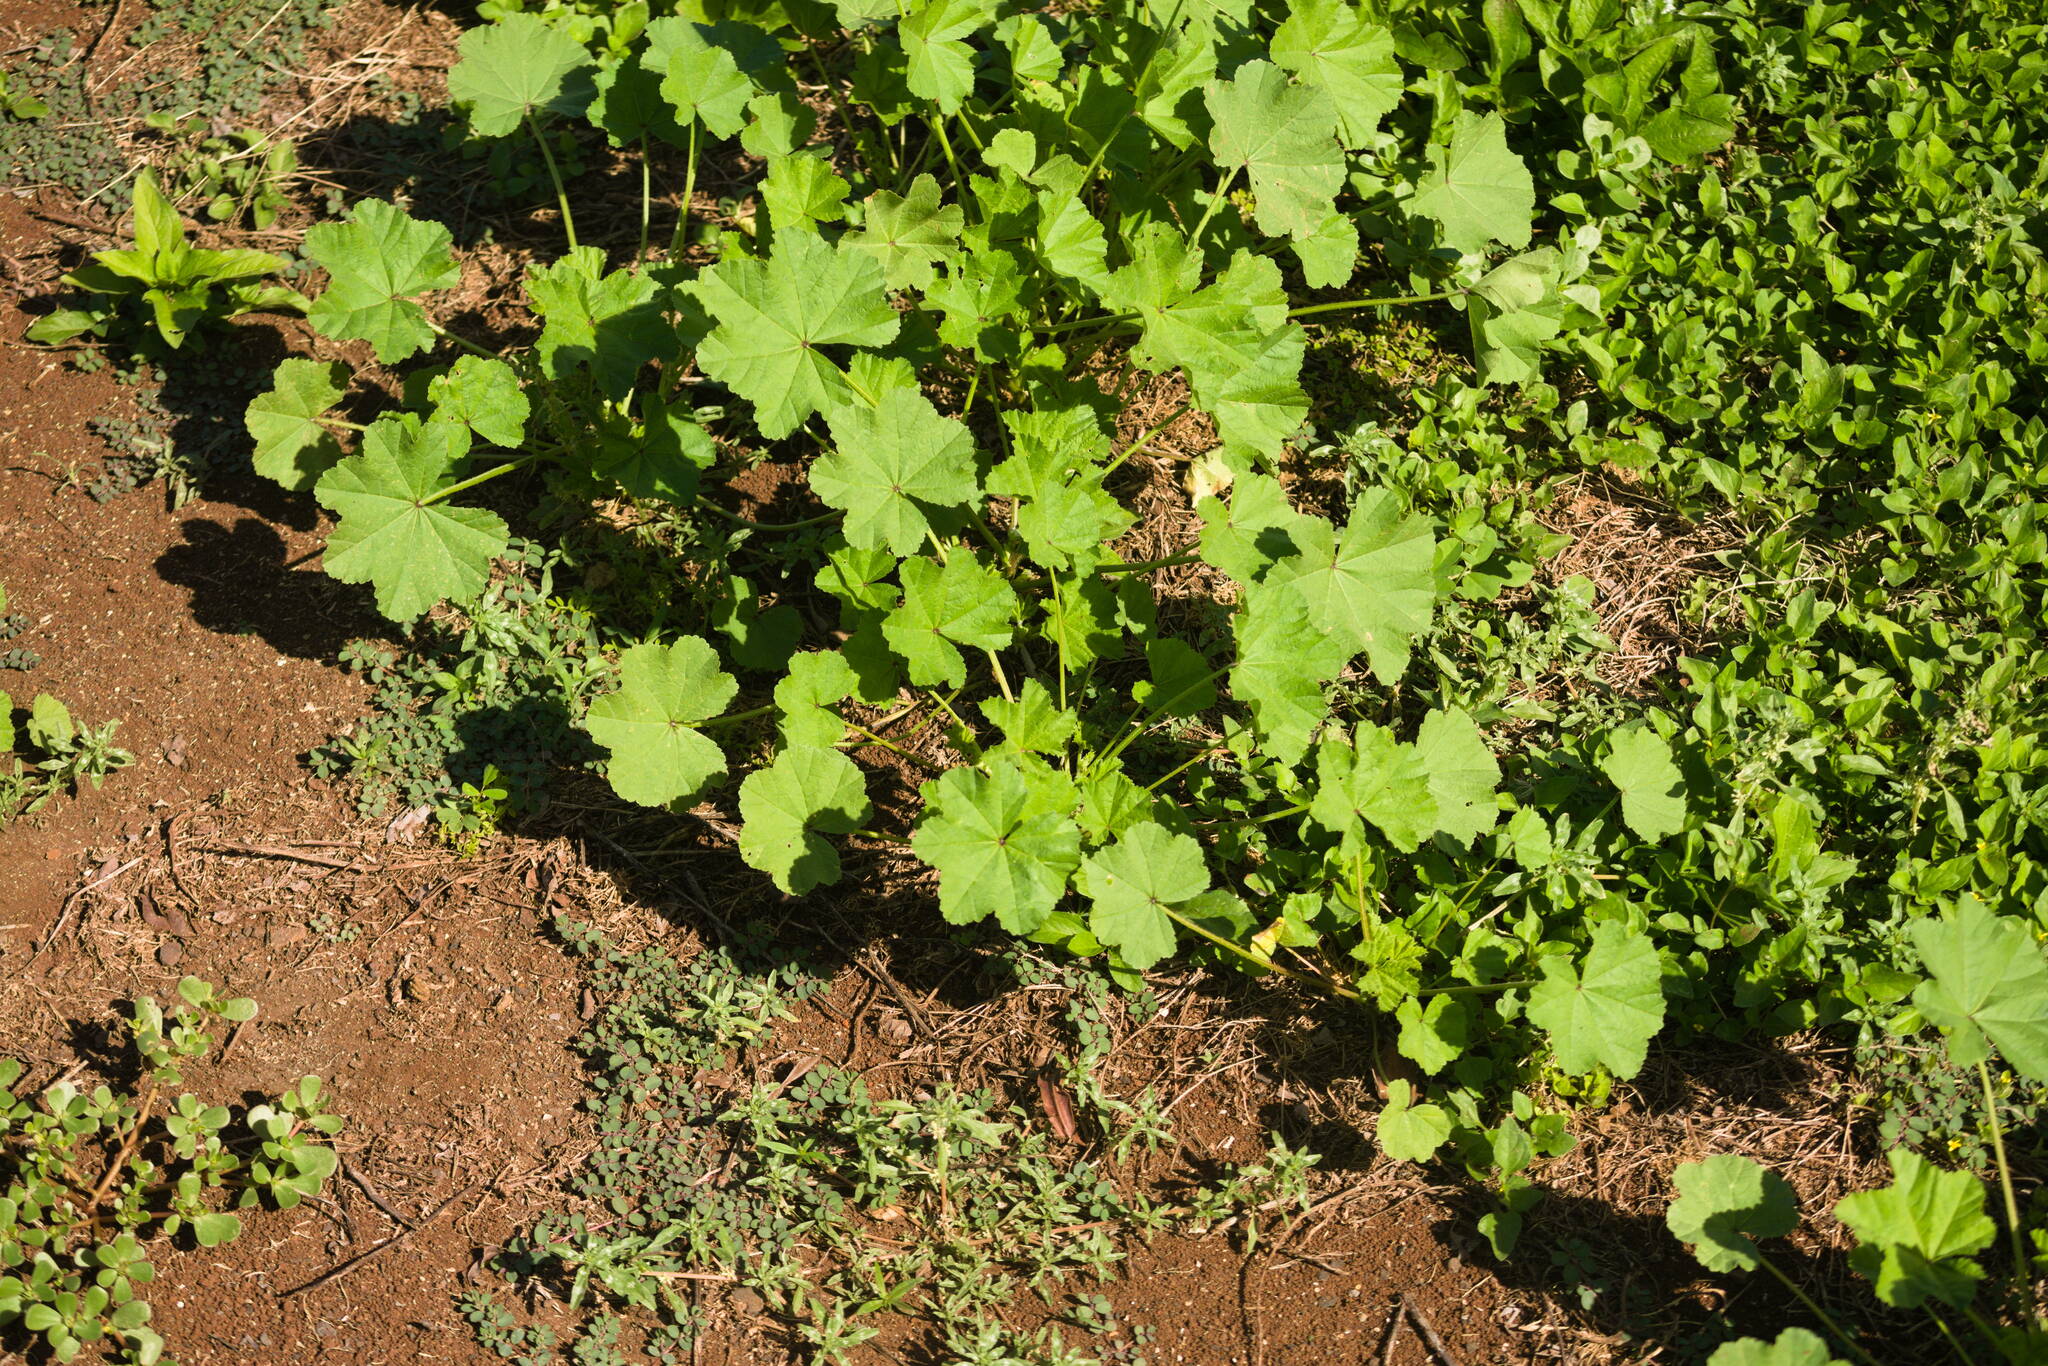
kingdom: Plantae
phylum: Tracheophyta
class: Magnoliopsida
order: Malvales
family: Malvaceae
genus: Malva
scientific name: Malva parviflora
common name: Least mallow
